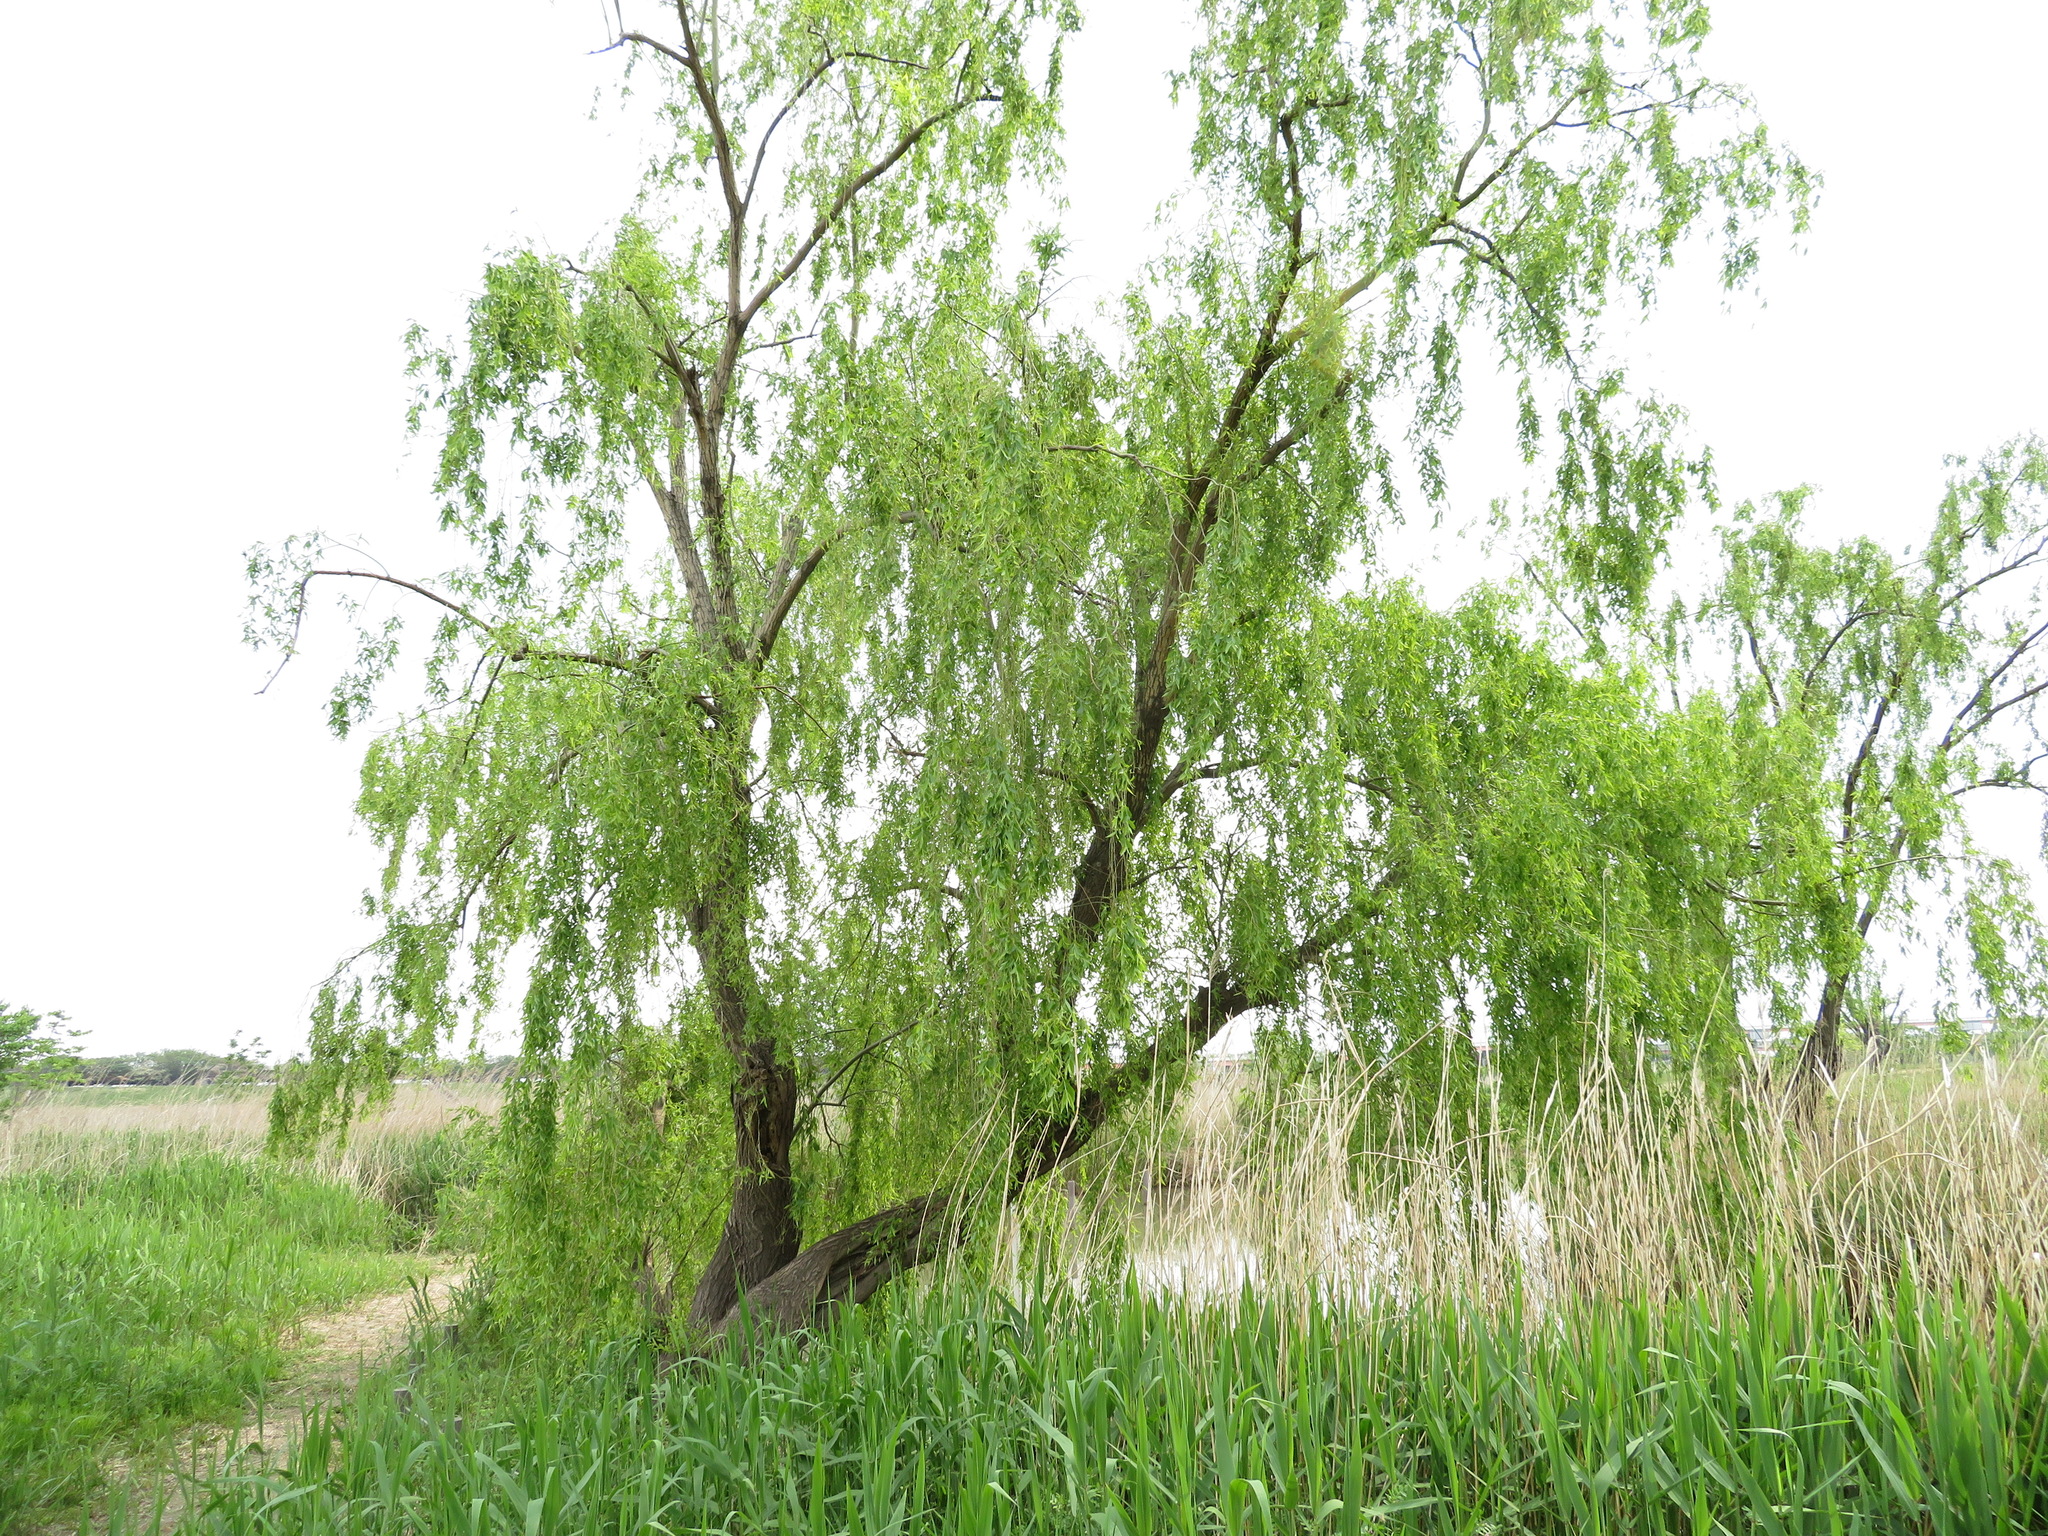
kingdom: Plantae
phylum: Tracheophyta
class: Magnoliopsida
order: Malpighiales
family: Salicaceae
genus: Salix
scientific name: Salix babylonica
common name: Weeping willow
